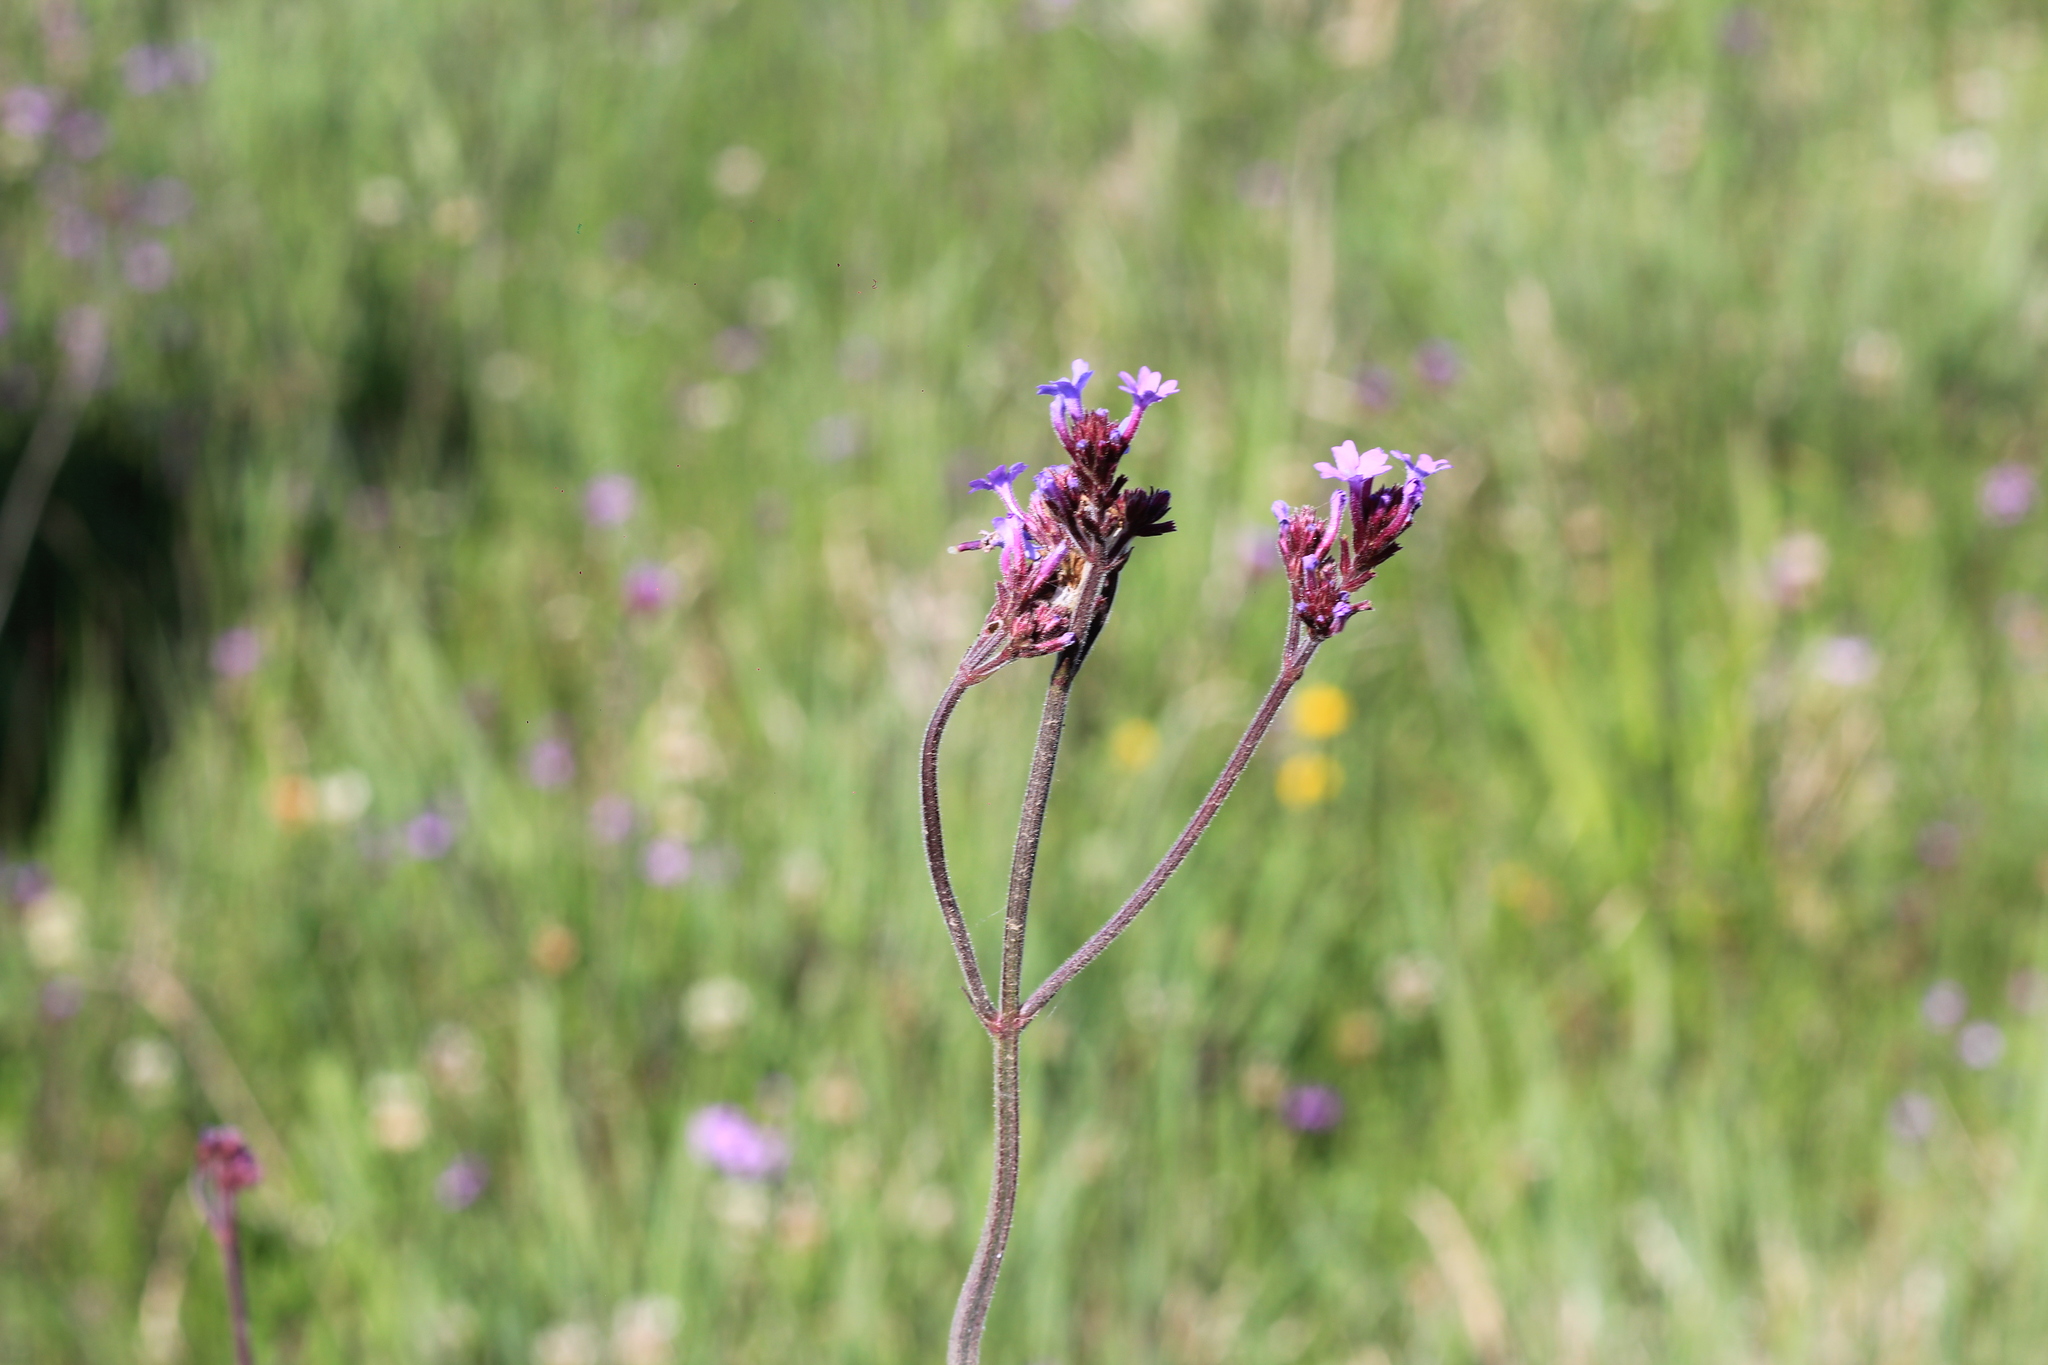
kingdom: Plantae
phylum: Tracheophyta
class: Magnoliopsida
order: Lamiales
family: Verbenaceae
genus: Verbena
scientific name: Verbena bonariensis
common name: Purpletop vervain
